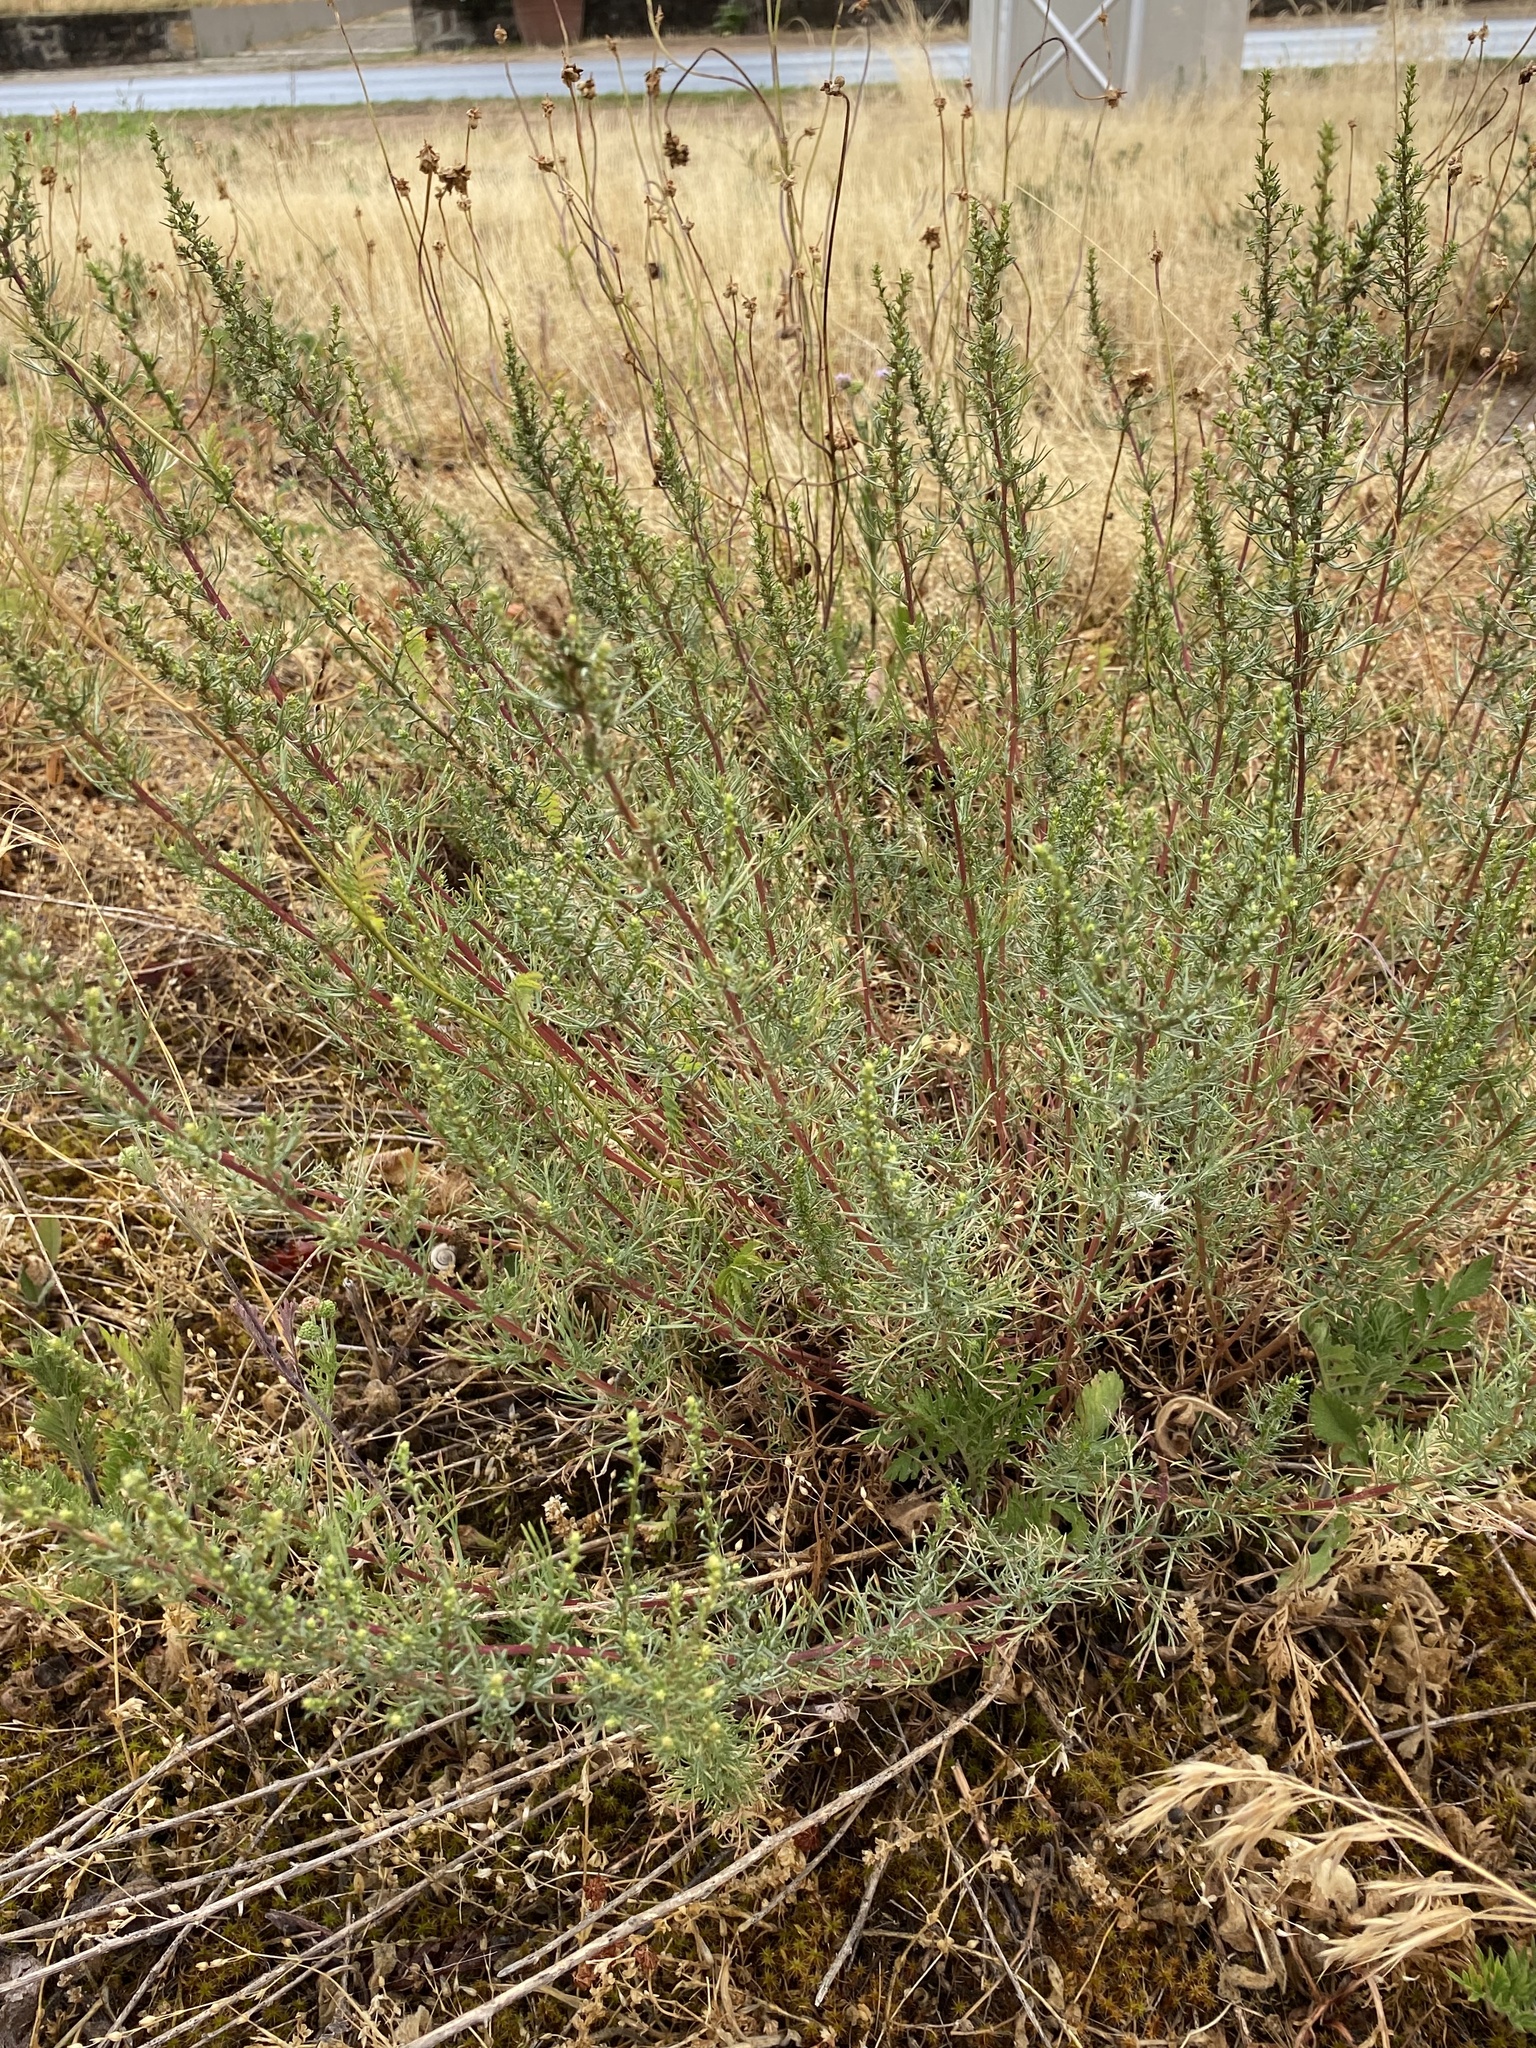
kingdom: Plantae
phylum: Tracheophyta
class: Magnoliopsida
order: Asterales
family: Asteraceae
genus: Artemisia
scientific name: Artemisia campestris
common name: Field wormwood
